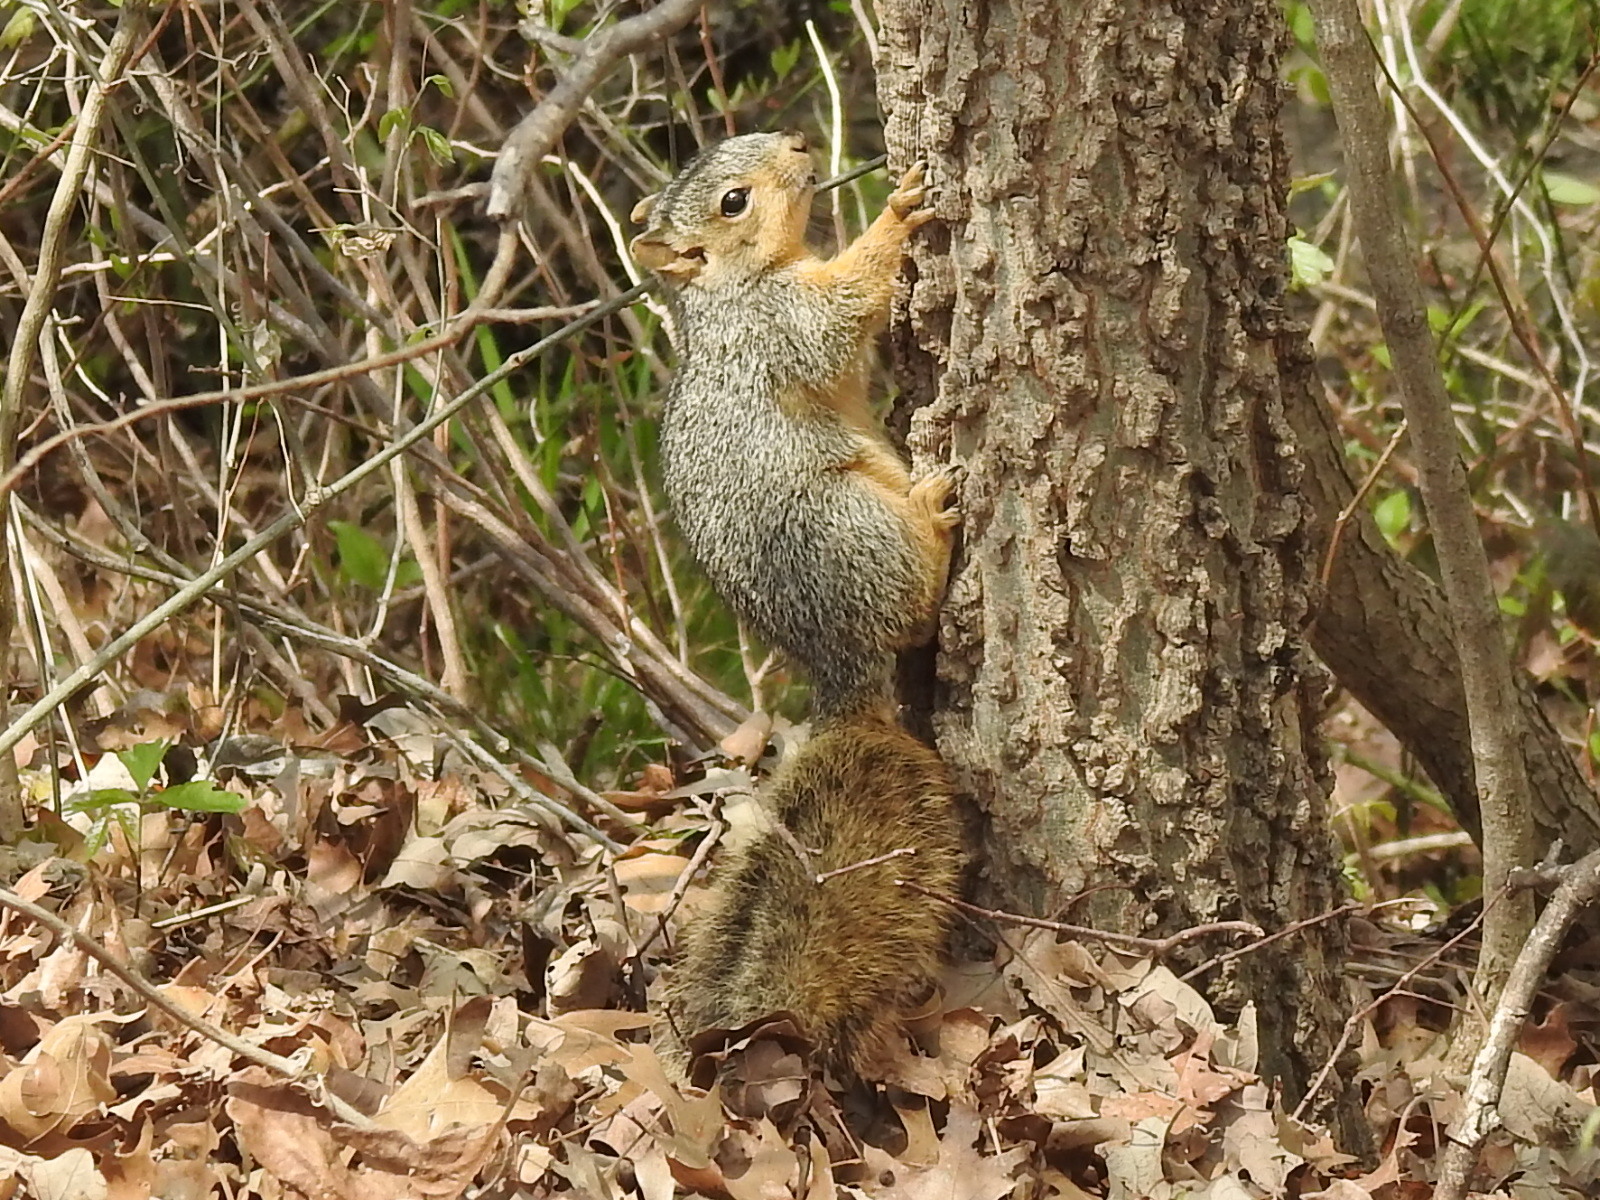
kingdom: Animalia
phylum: Chordata
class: Mammalia
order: Rodentia
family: Sciuridae
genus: Sciurus
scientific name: Sciurus niger
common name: Fox squirrel
